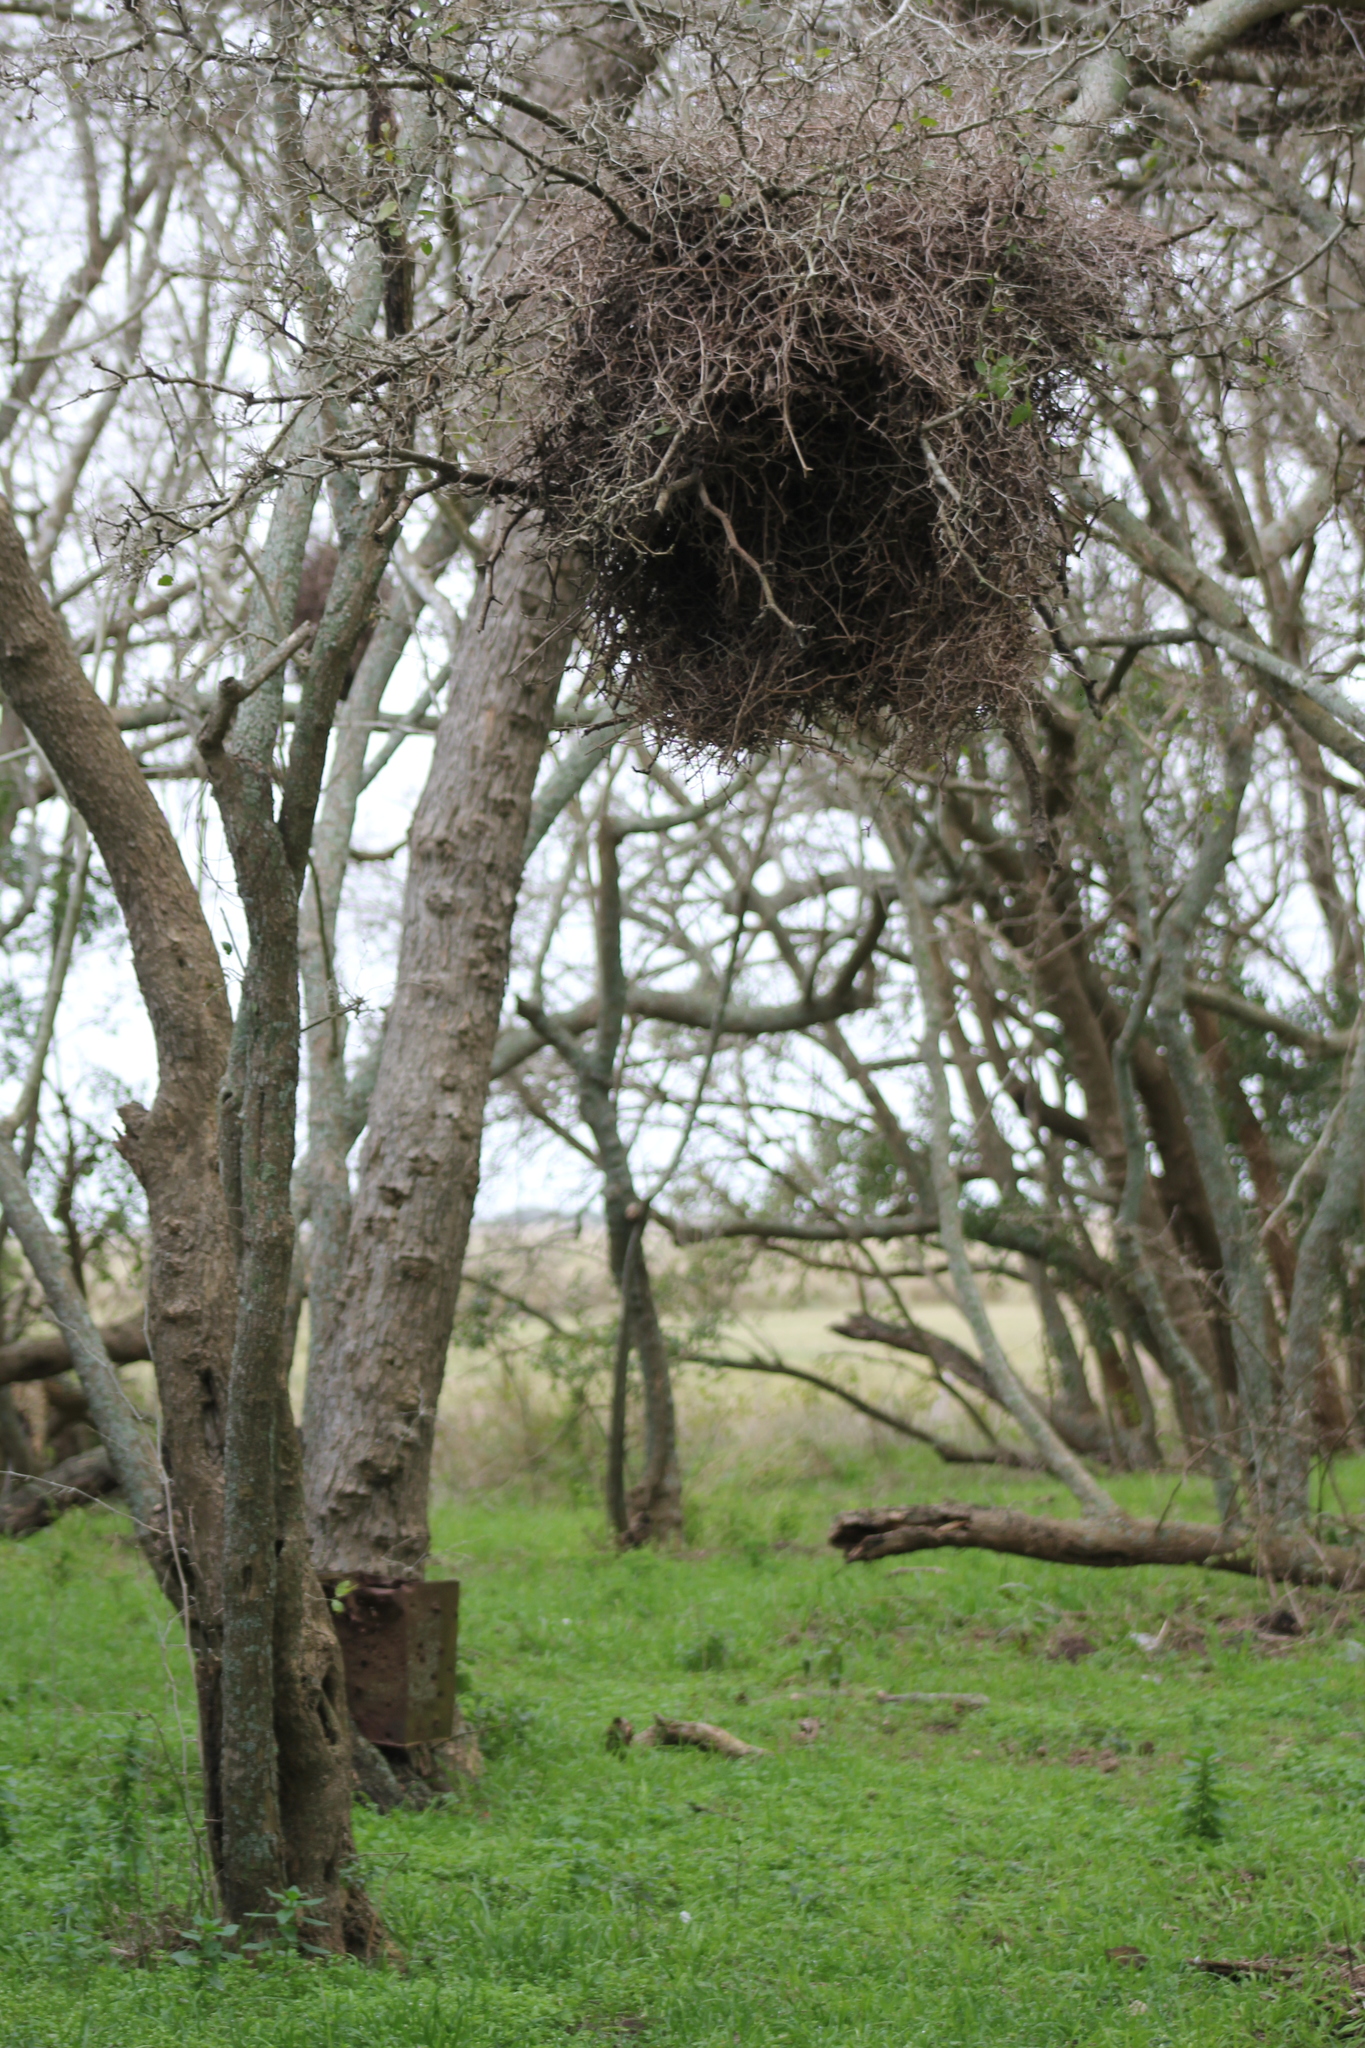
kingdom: Animalia
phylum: Chordata
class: Aves
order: Psittaciformes
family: Psittacidae
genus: Myiopsitta
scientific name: Myiopsitta monachus
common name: Monk parakeet
